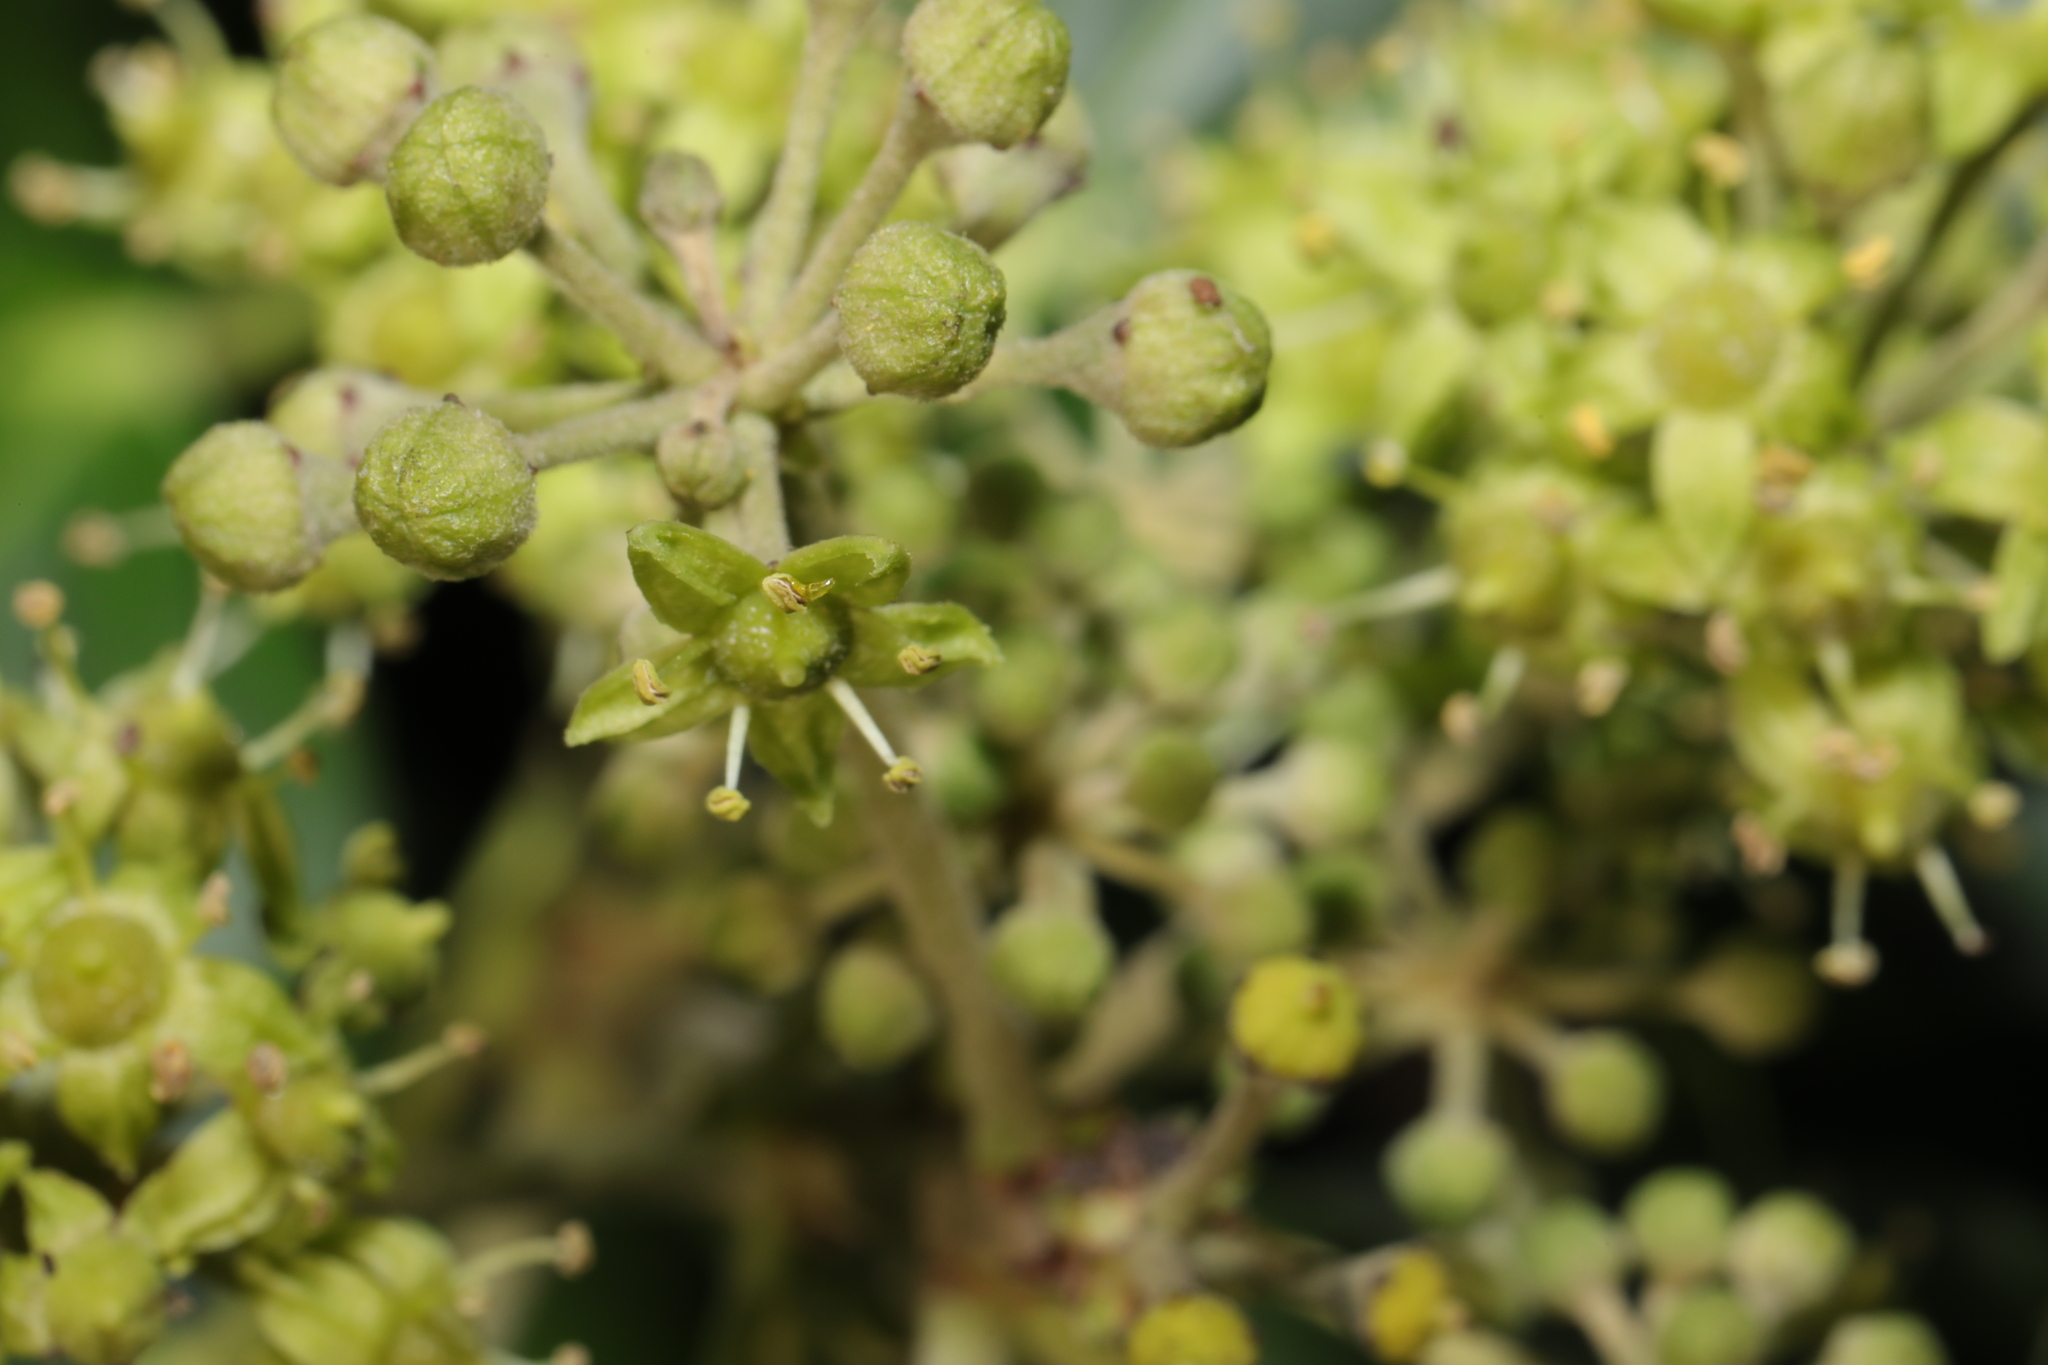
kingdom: Plantae
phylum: Tracheophyta
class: Magnoliopsida
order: Apiales
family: Araliaceae
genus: Hedera
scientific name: Hedera helix
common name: Ivy
